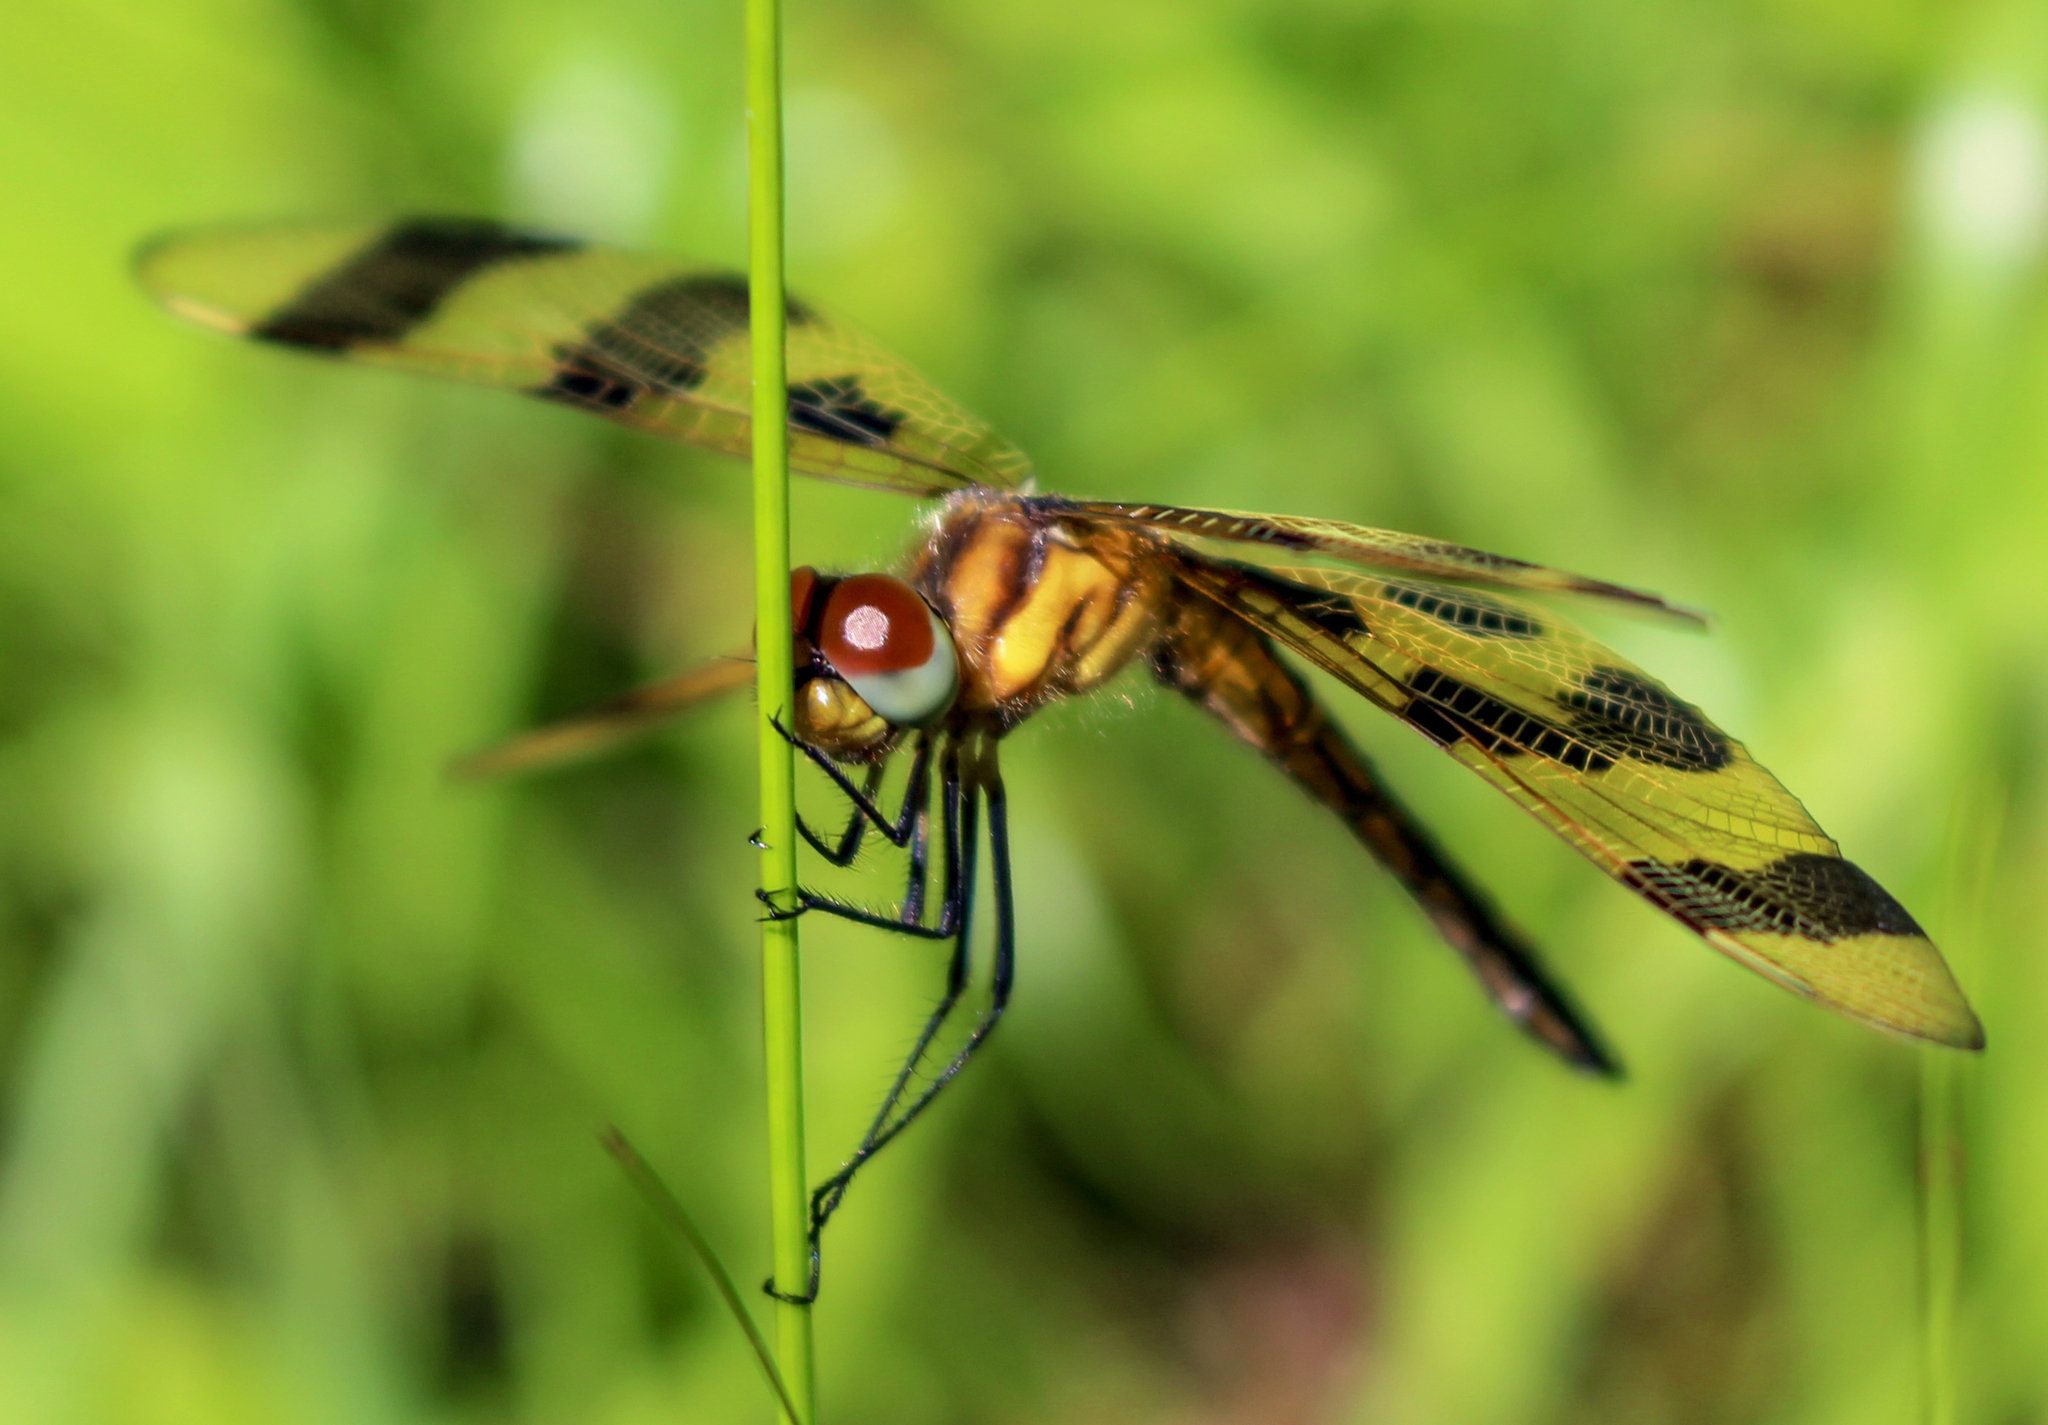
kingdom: Animalia
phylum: Arthropoda
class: Insecta
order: Odonata
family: Libellulidae
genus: Celithemis
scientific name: Celithemis eponina
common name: Halloween pennant
